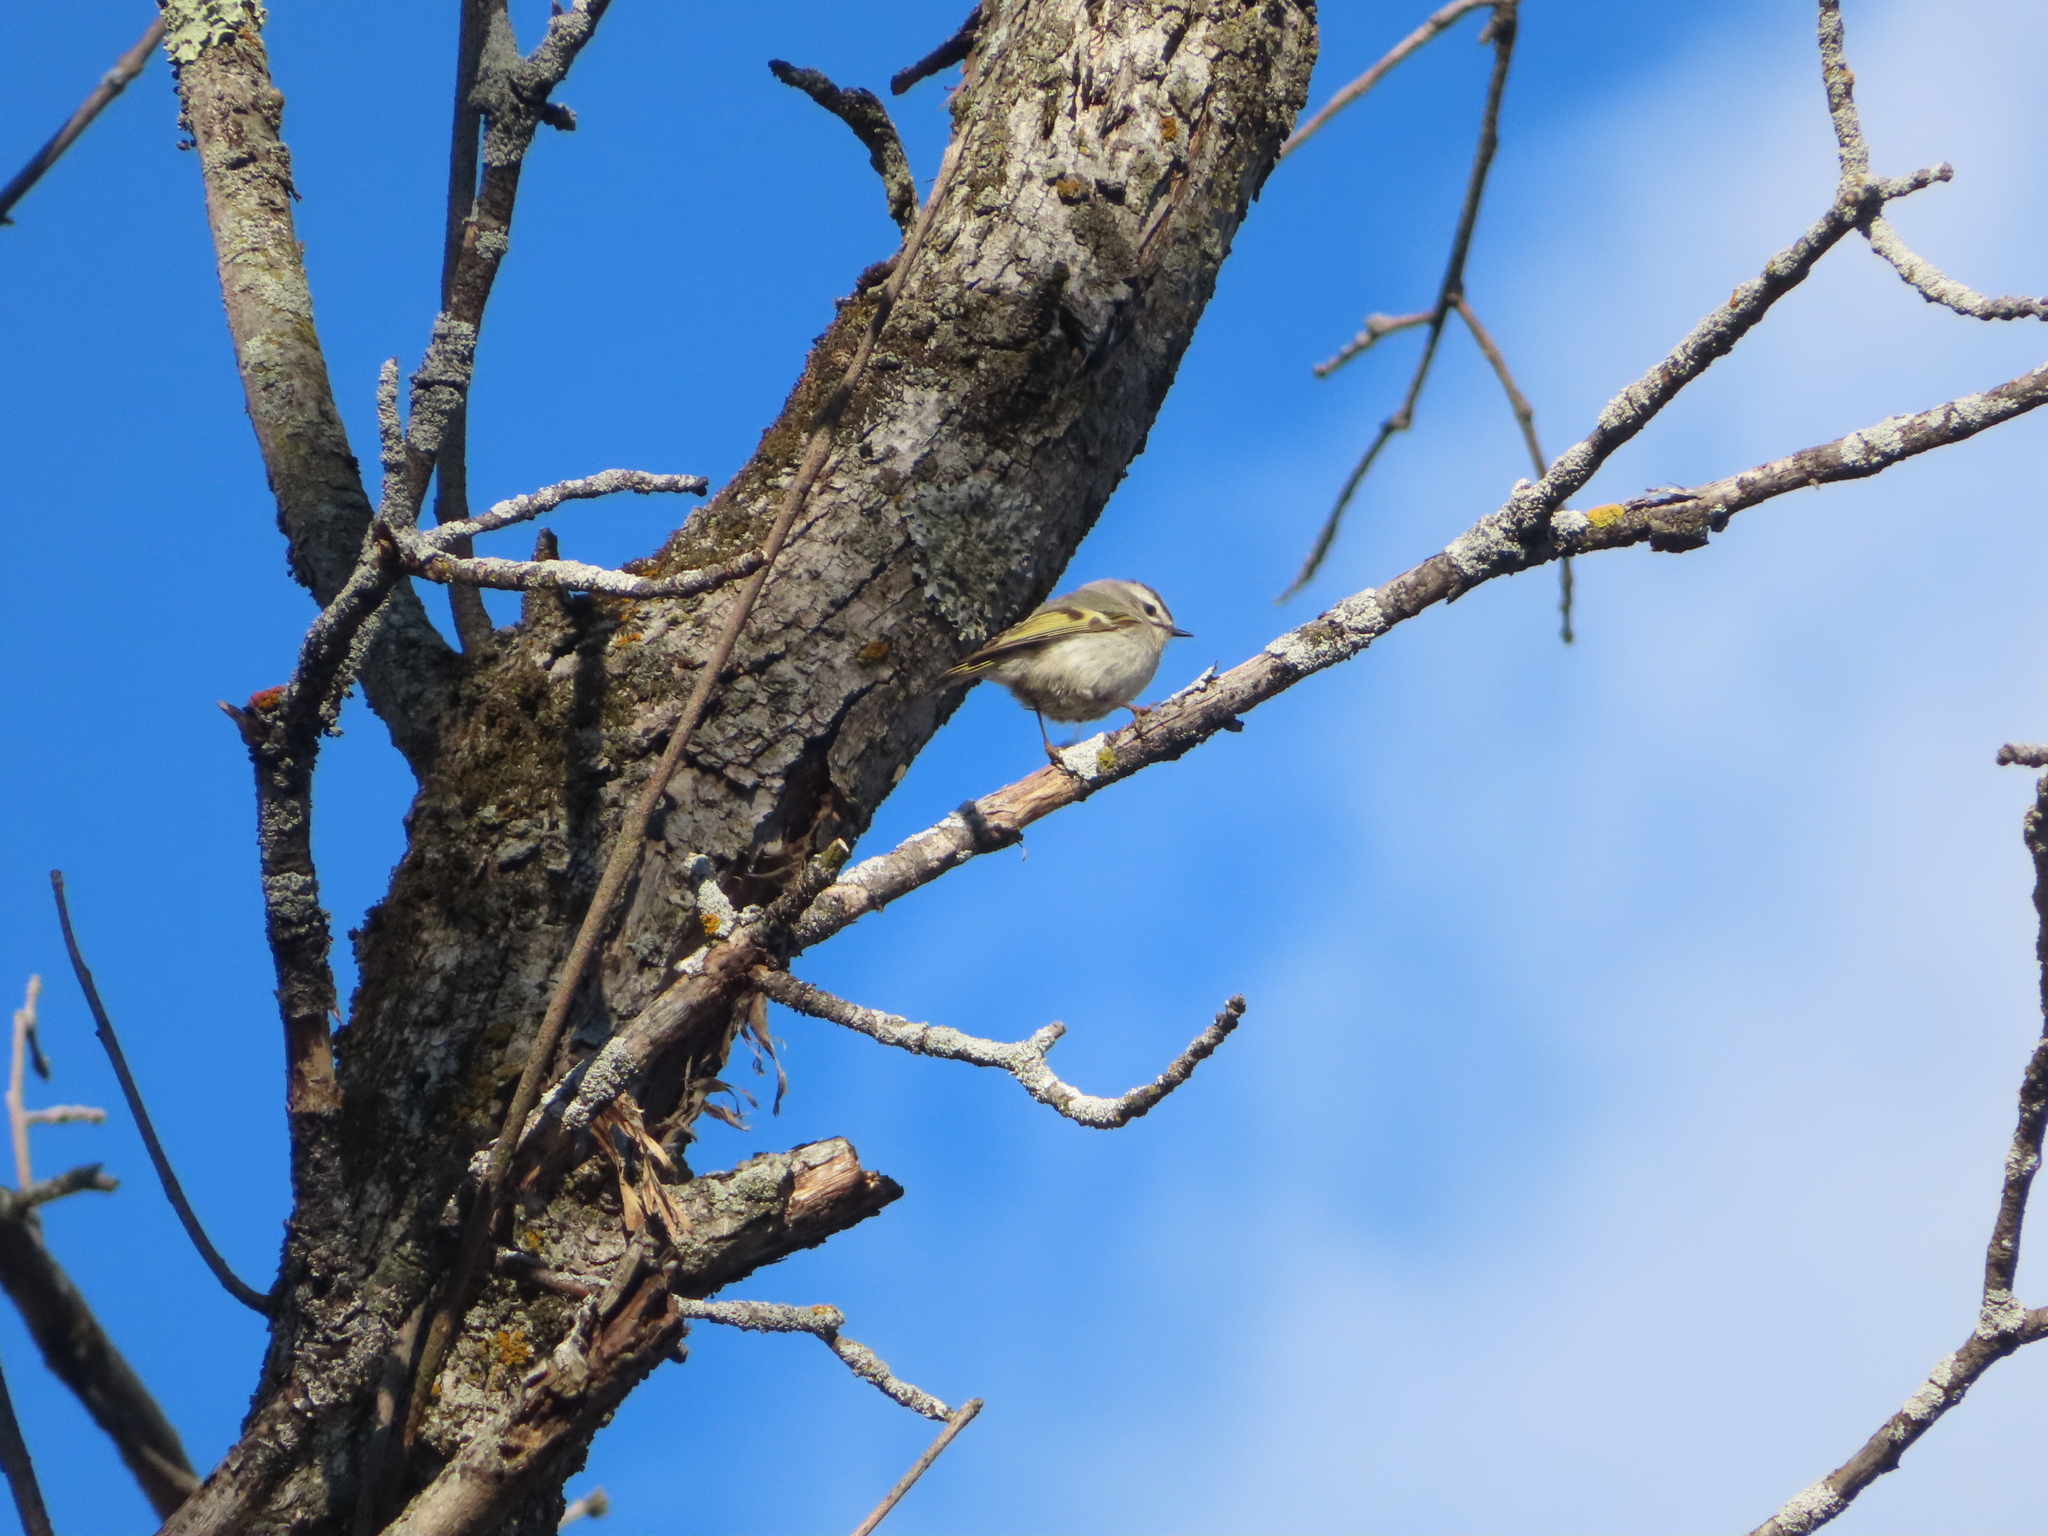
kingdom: Animalia
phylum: Chordata
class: Aves
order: Passeriformes
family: Regulidae
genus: Regulus
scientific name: Regulus satrapa
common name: Golden-crowned kinglet
